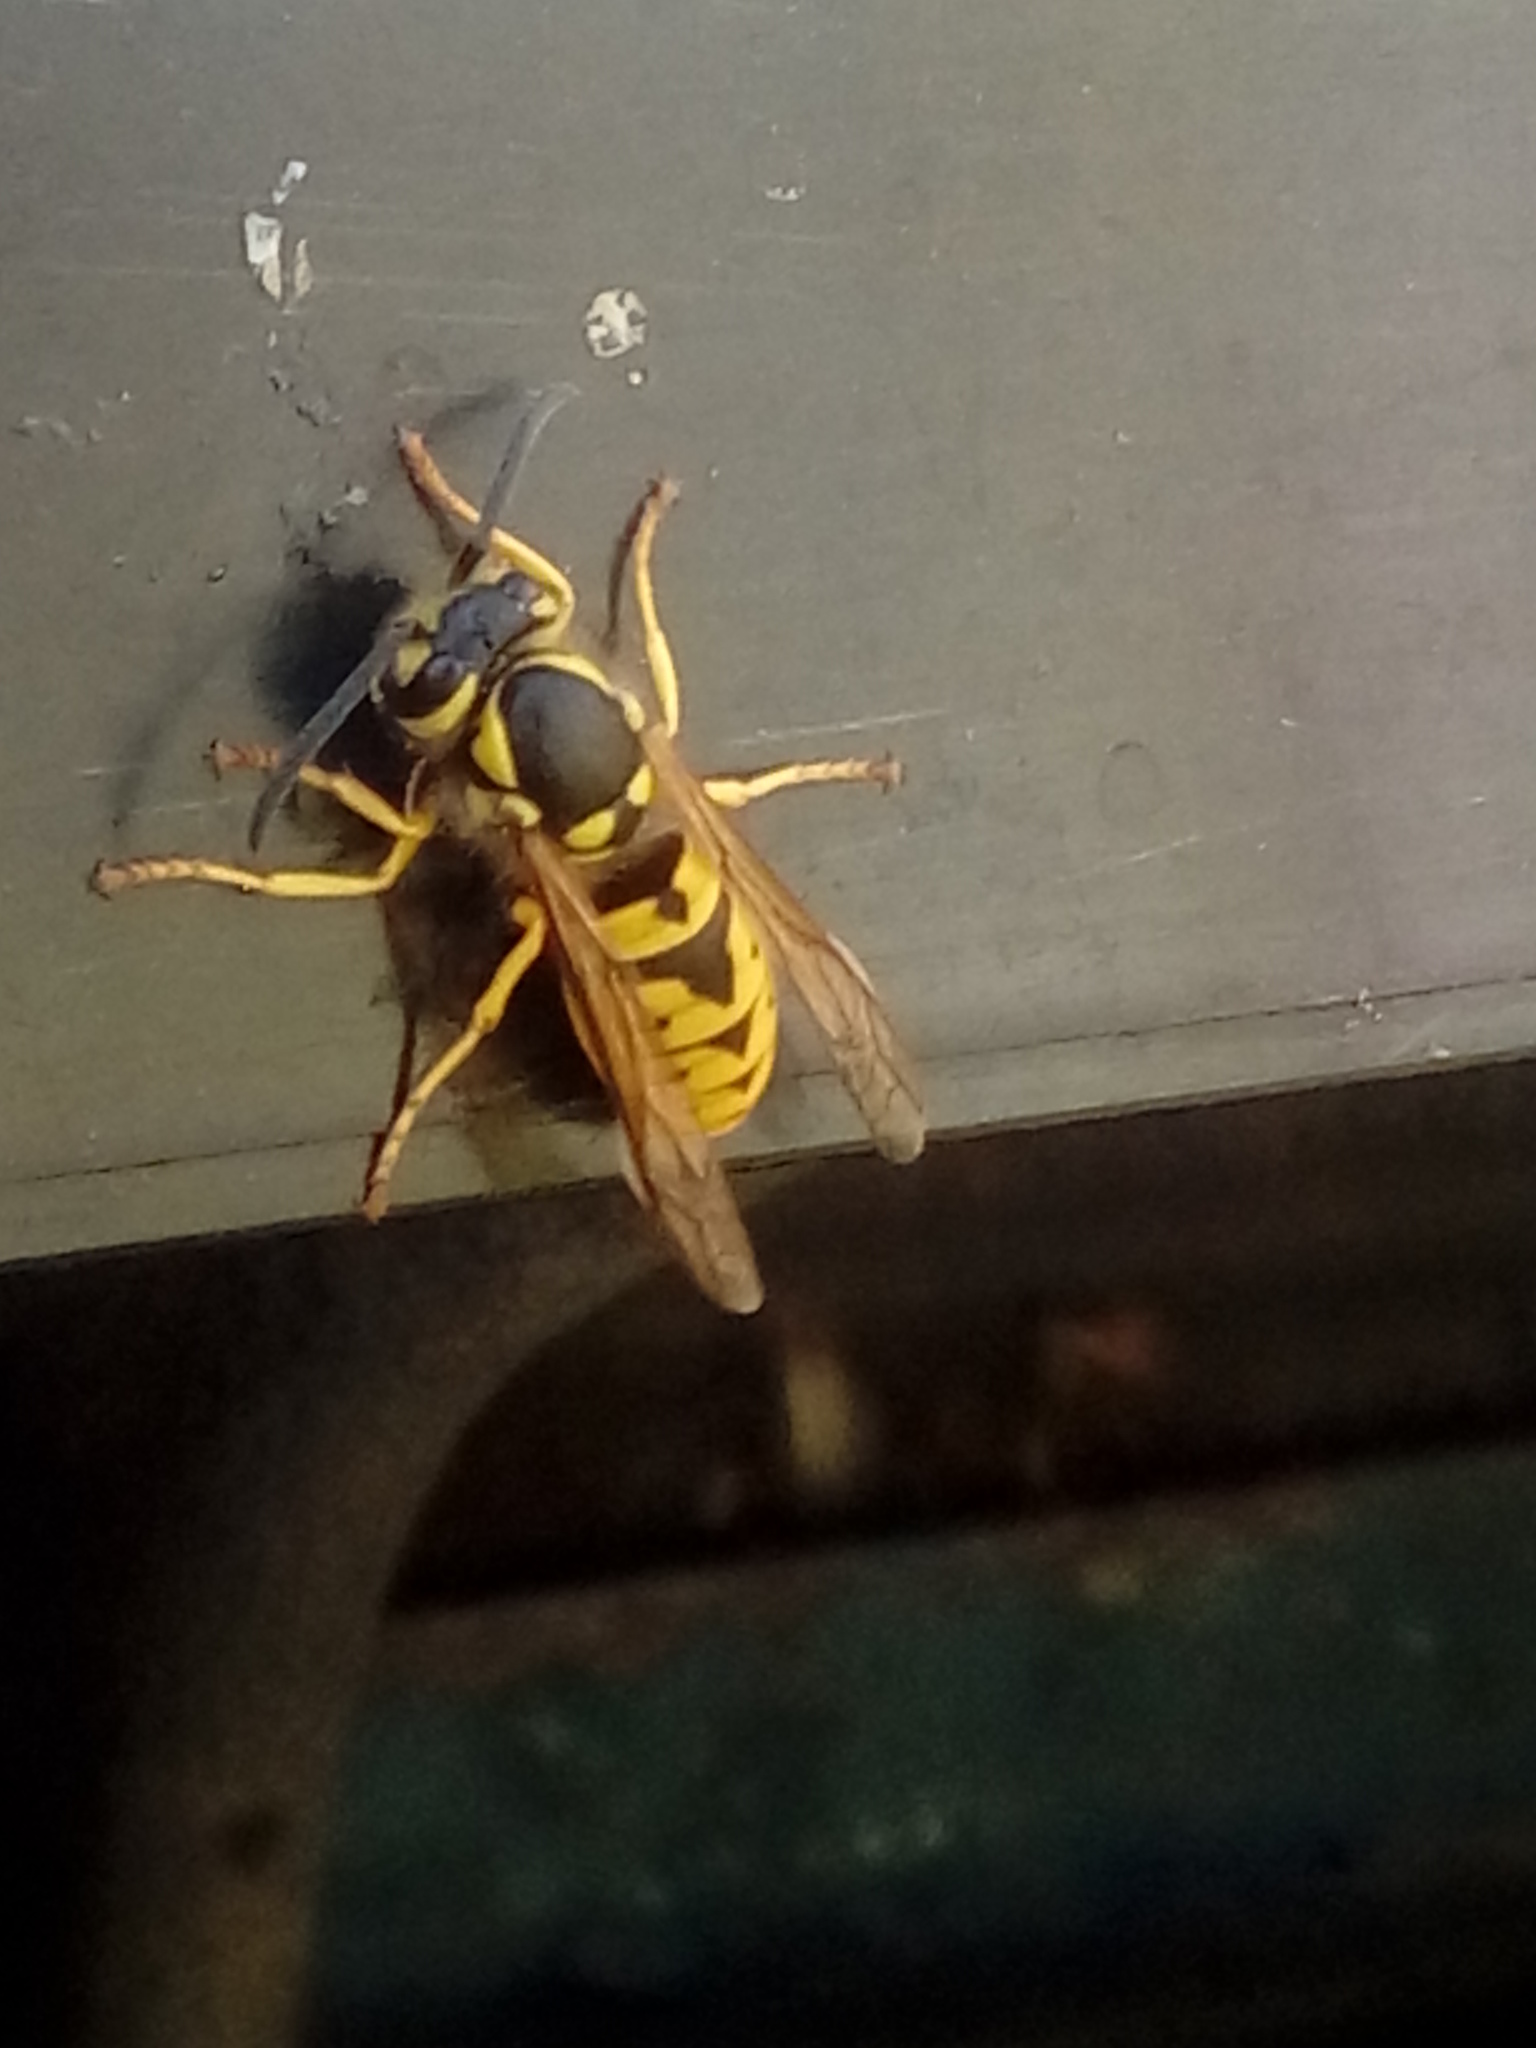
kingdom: Animalia
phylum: Arthropoda
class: Insecta
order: Hymenoptera
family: Vespidae
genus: Vespula
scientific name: Vespula germanica
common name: German wasp
